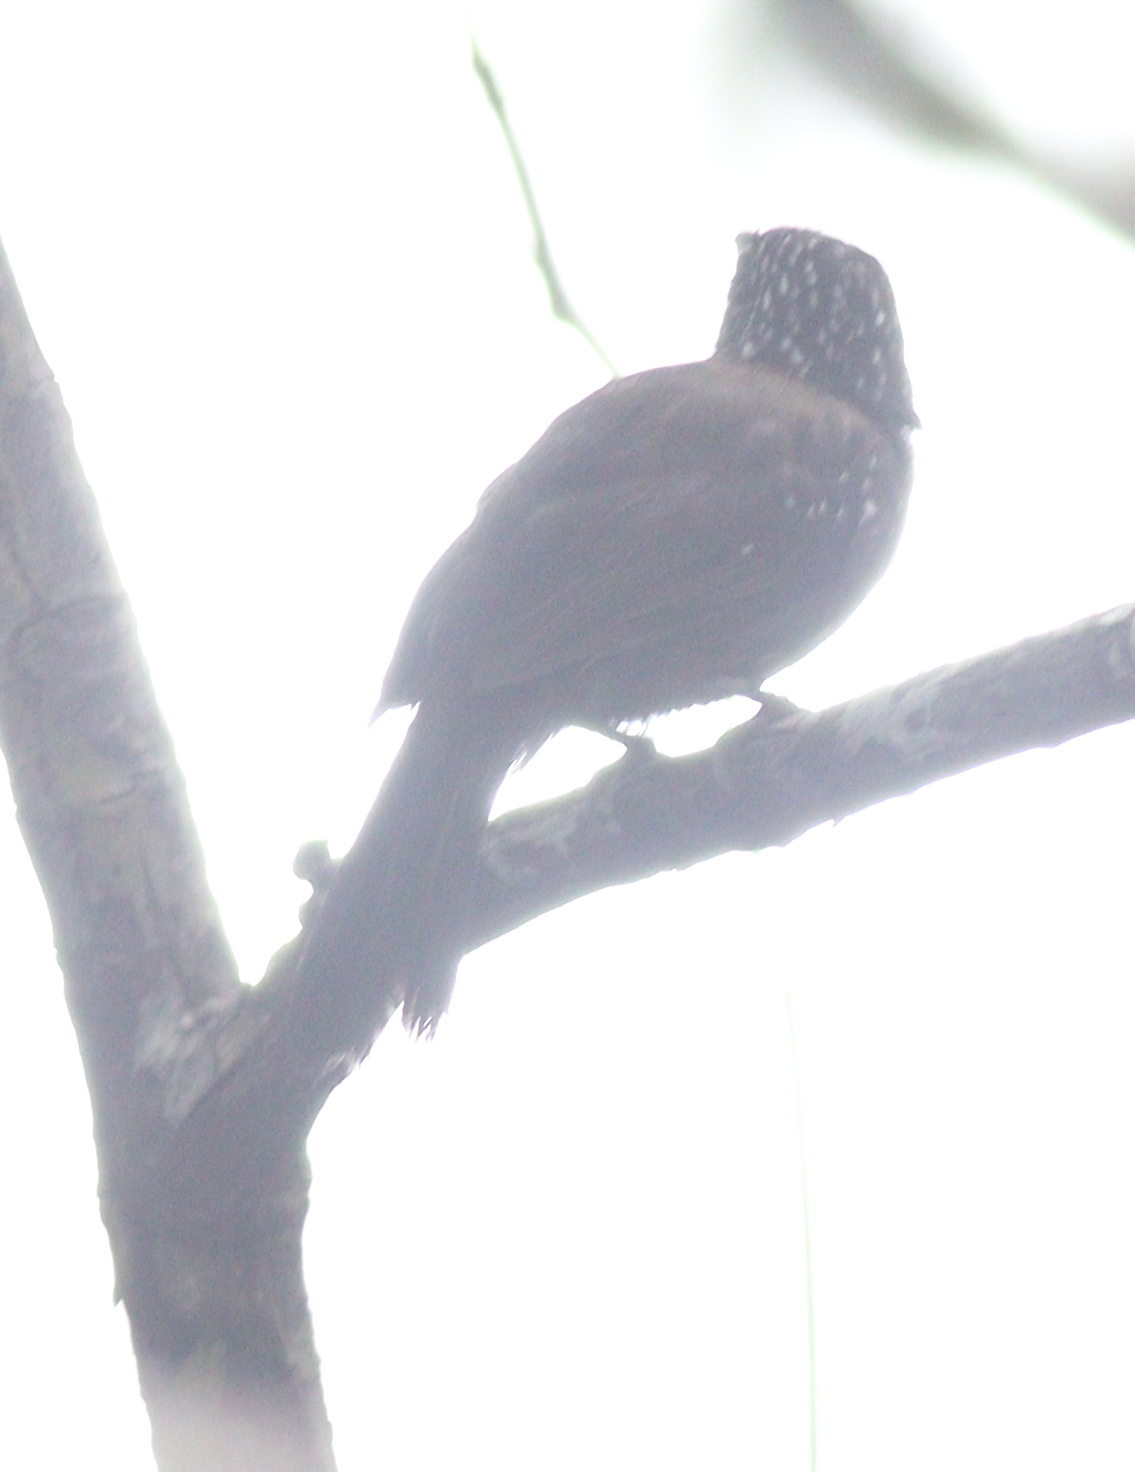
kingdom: Animalia
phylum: Chordata
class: Aves
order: Passeriformes
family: Thamnophilidae
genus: Thamnophilus
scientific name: Thamnophilus bridgesi
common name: Black-hooded antshrike
